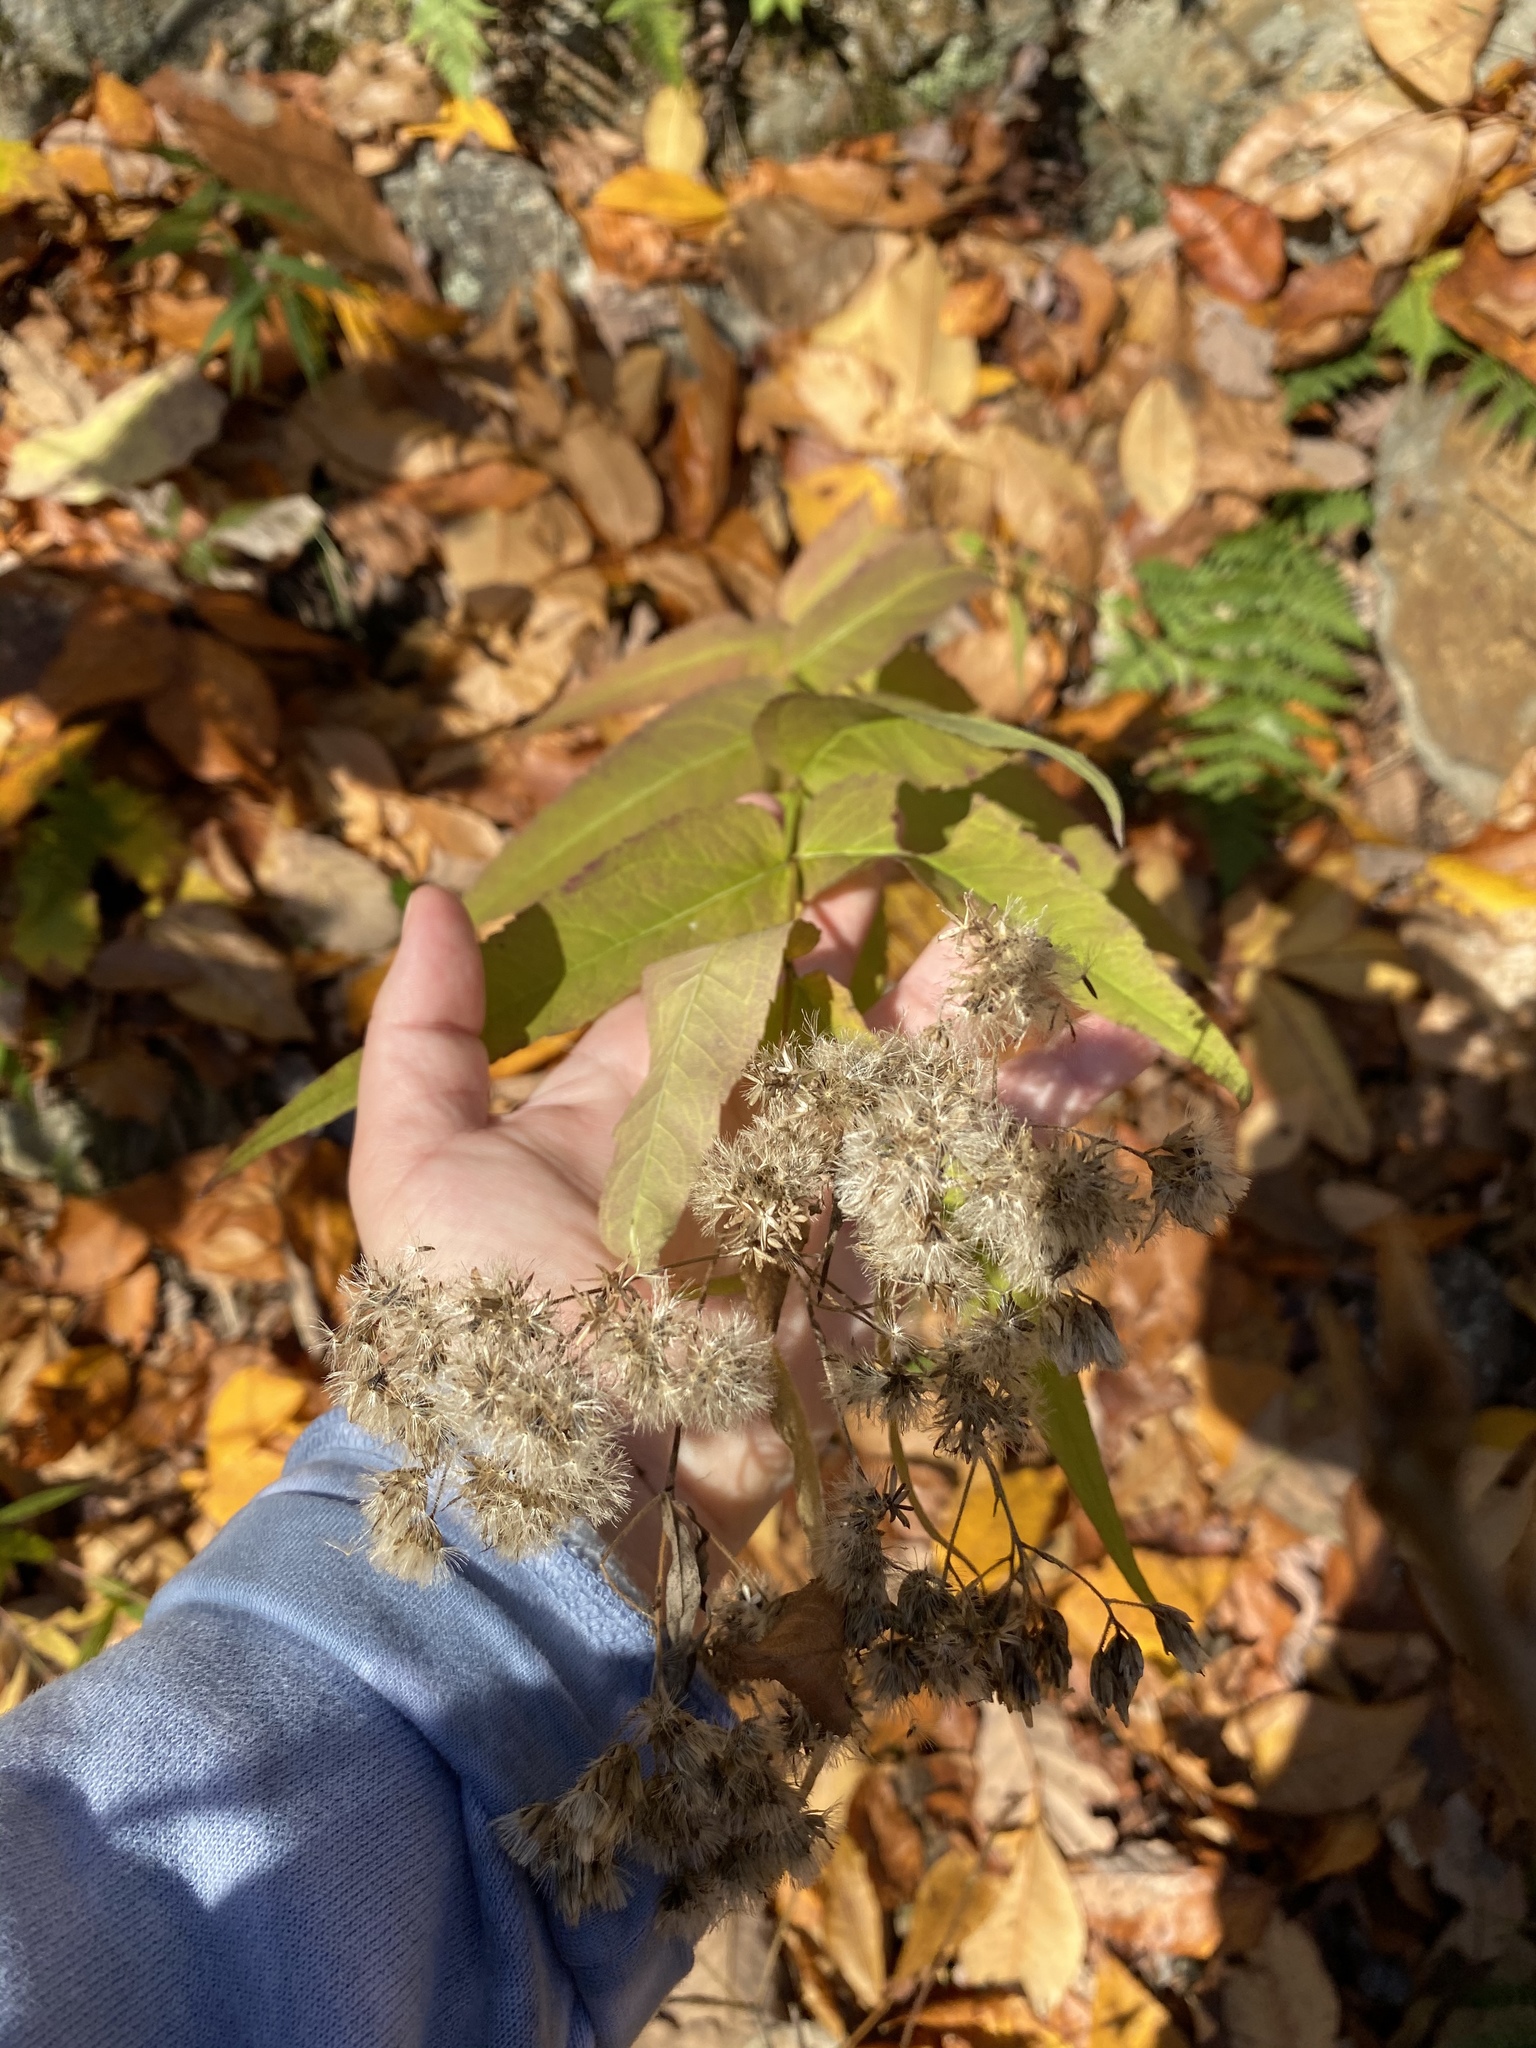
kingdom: Plantae
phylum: Tracheophyta
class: Magnoliopsida
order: Asterales
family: Asteraceae
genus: Eupatorium
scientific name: Eupatorium sessilifolium
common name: Upland boneset
